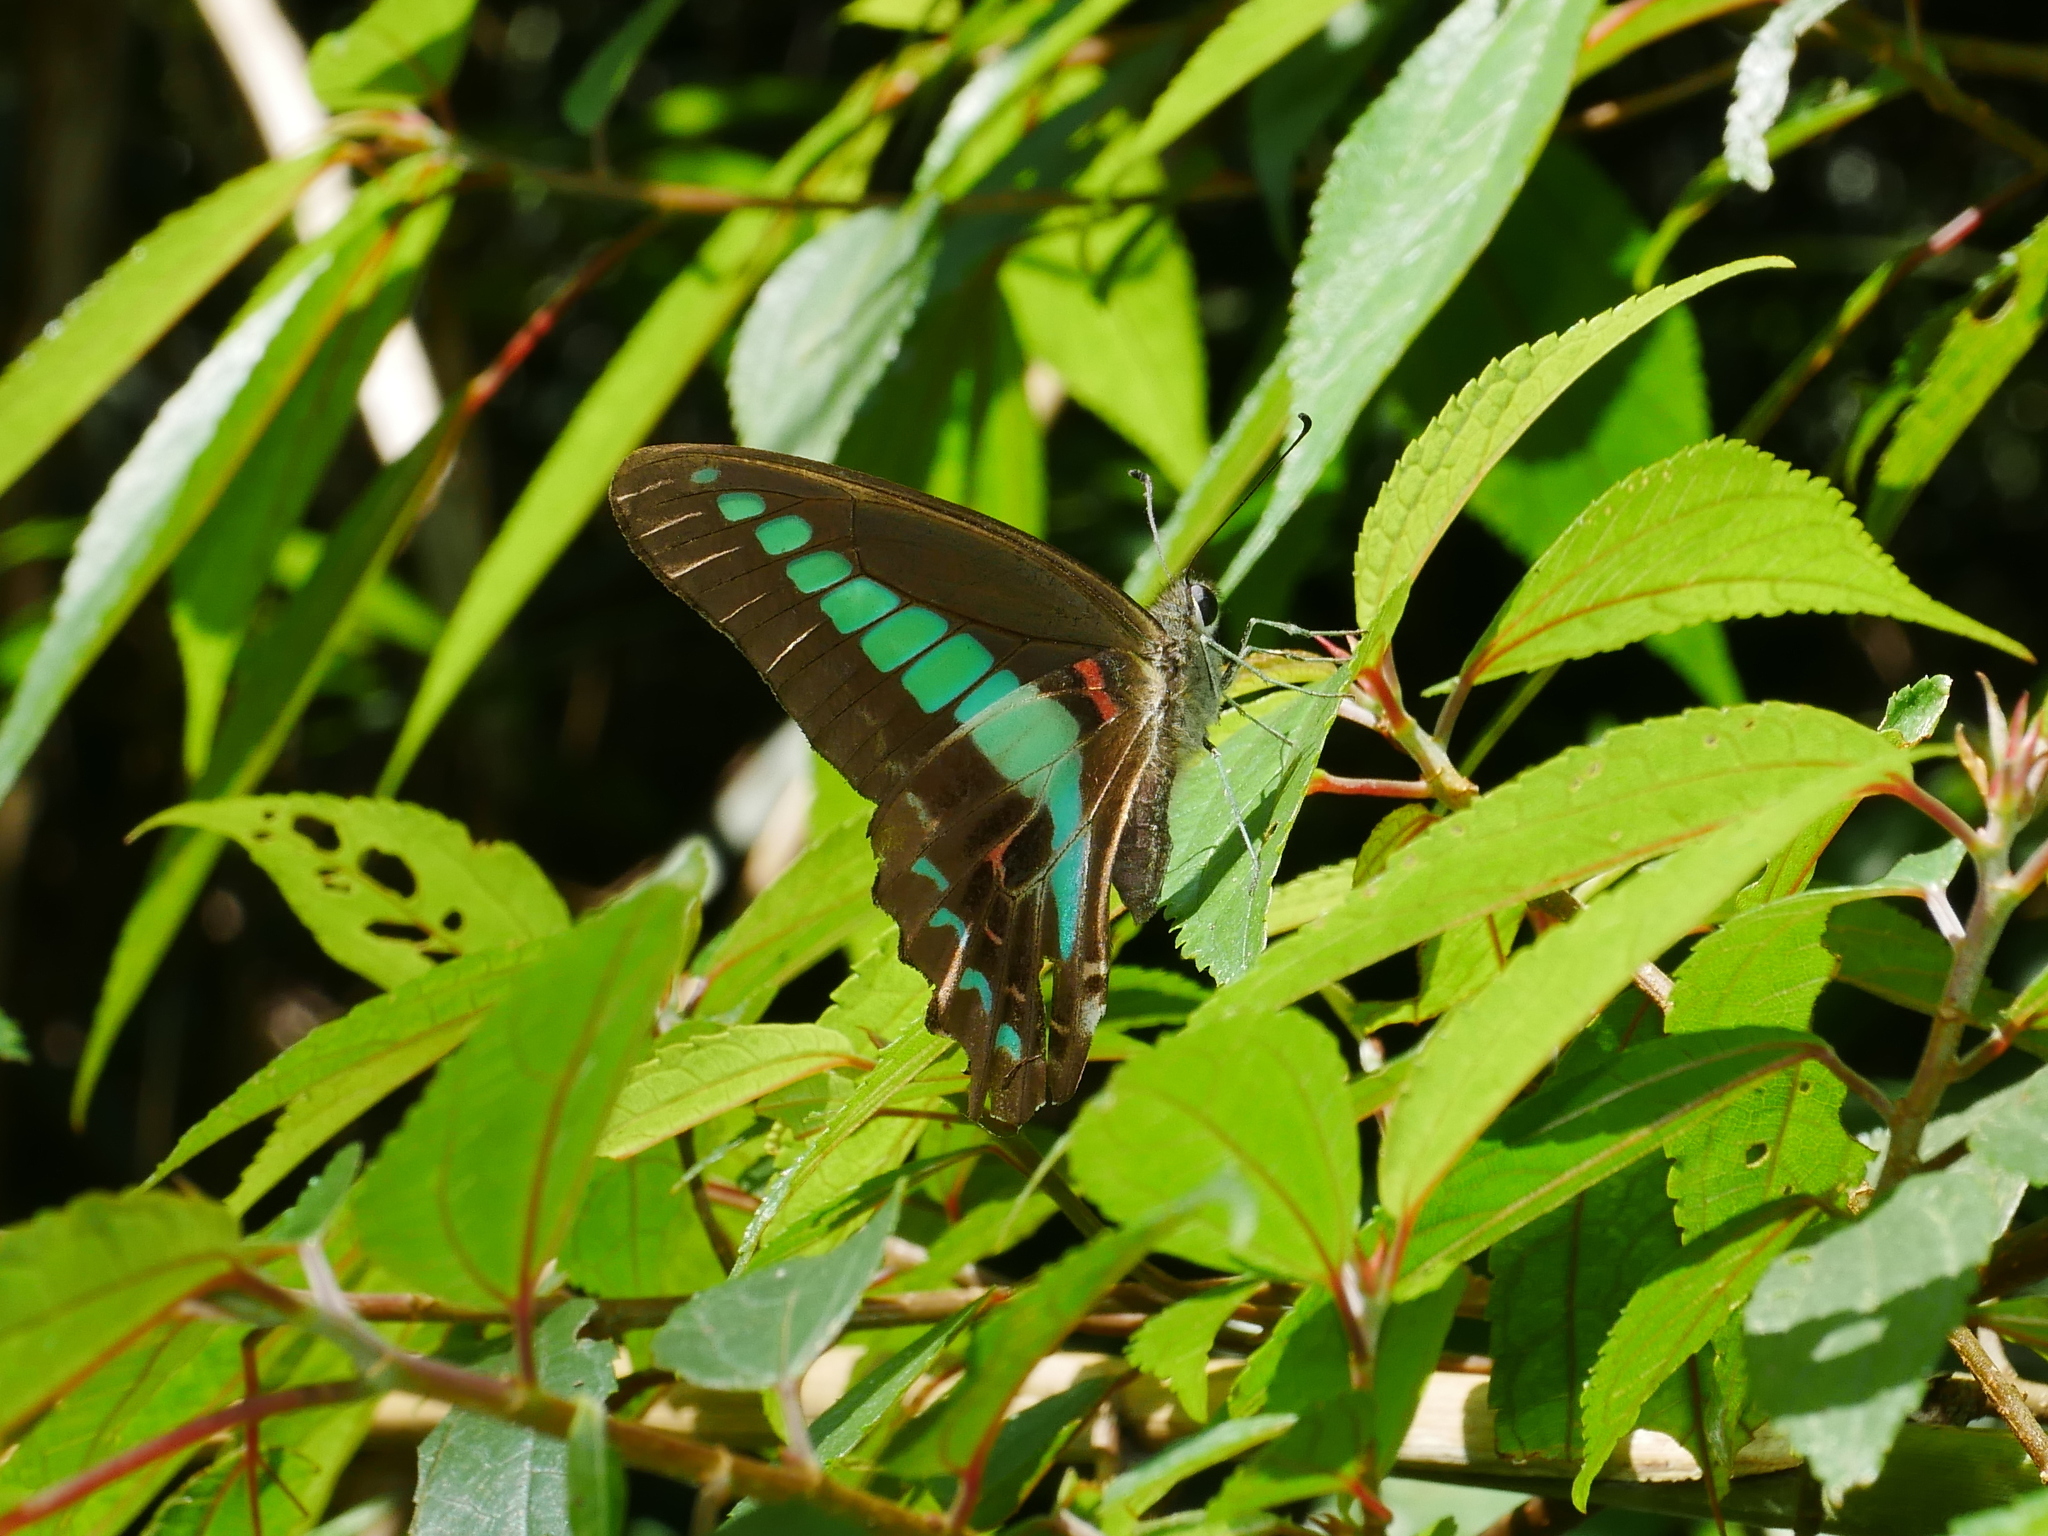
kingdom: Fungi
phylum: Ascomycota
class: Sordariomycetes
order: Microascales
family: Microascaceae
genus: Graphium
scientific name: Graphium sarpedon
